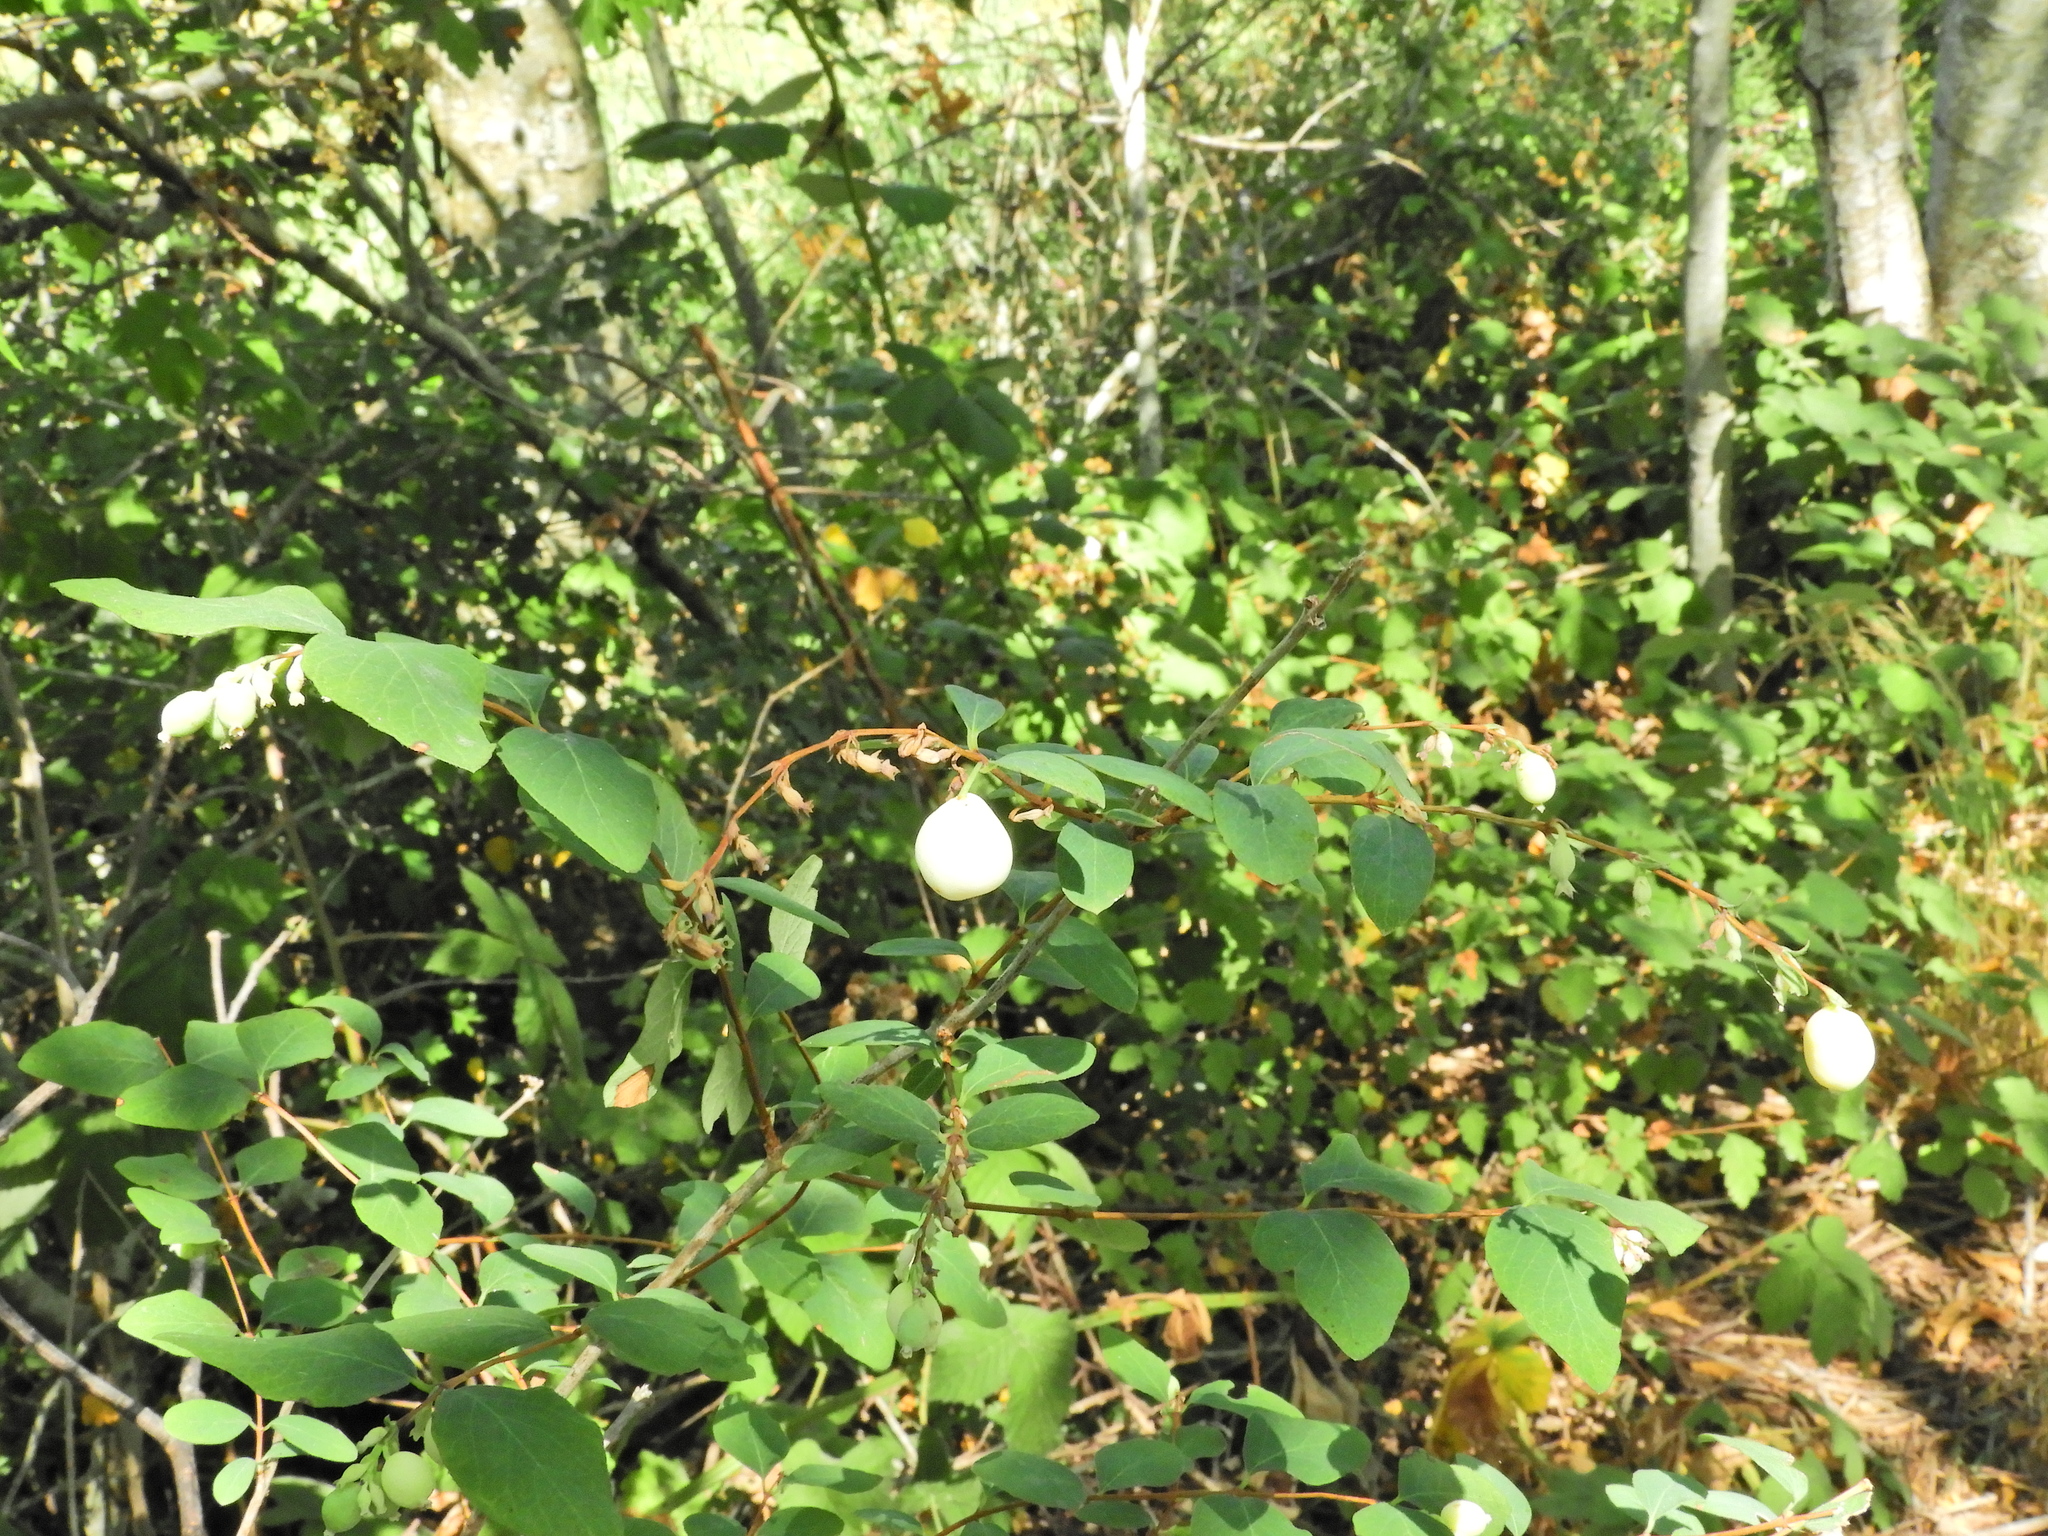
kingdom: Plantae
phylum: Tracheophyta
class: Magnoliopsida
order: Dipsacales
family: Caprifoliaceae
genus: Symphoricarpos
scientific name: Symphoricarpos albus
